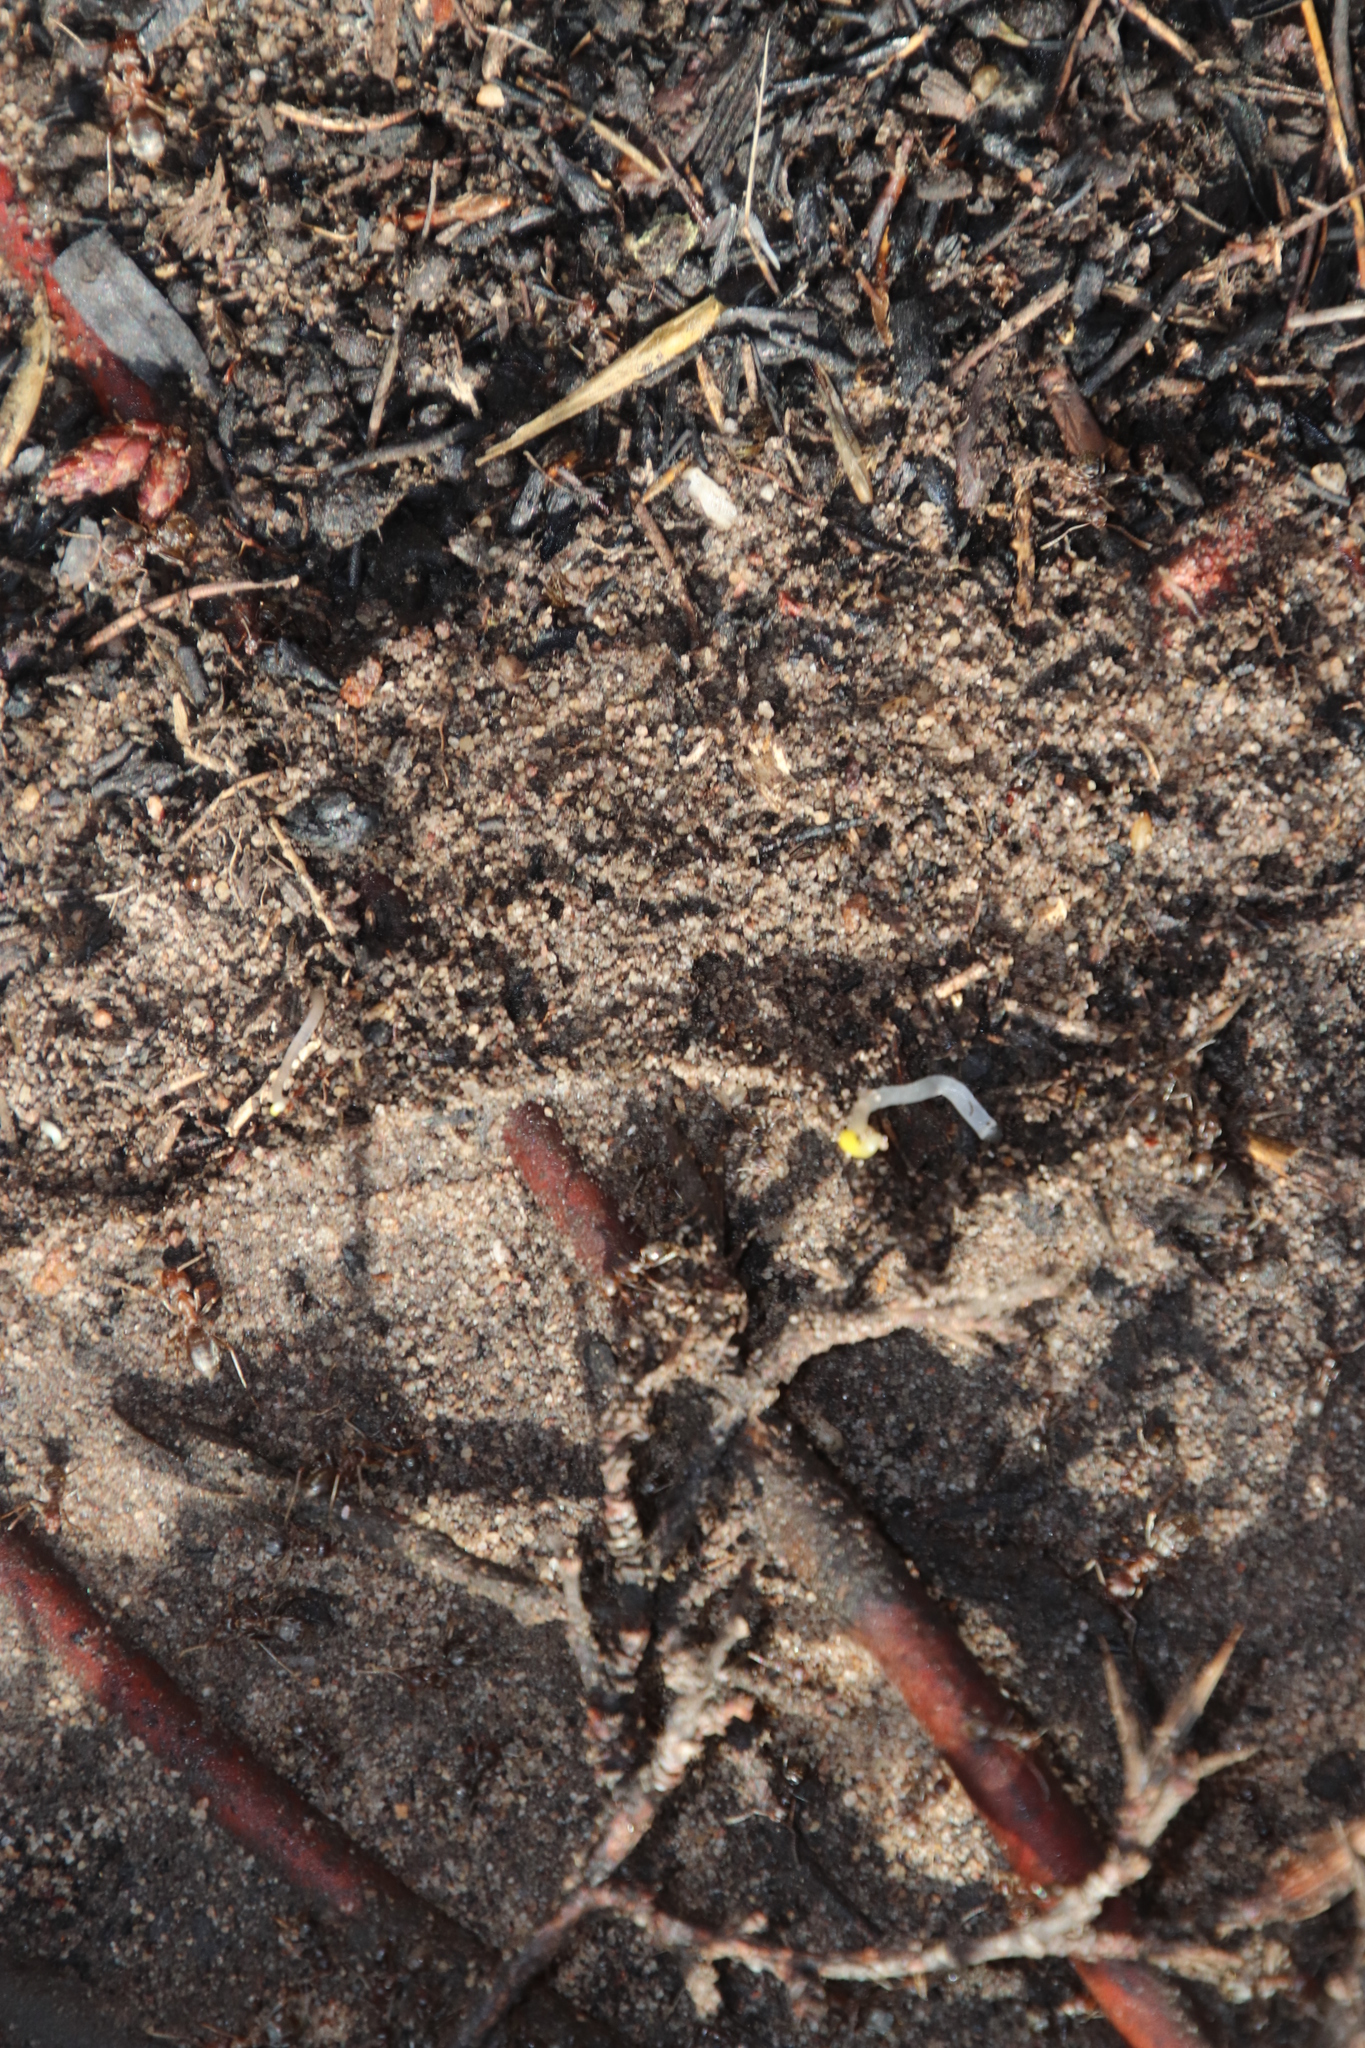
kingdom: Animalia
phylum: Arthropoda
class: Insecta
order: Hymenoptera
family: Formicidae
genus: Anoplolepis
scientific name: Anoplolepis custodiens
